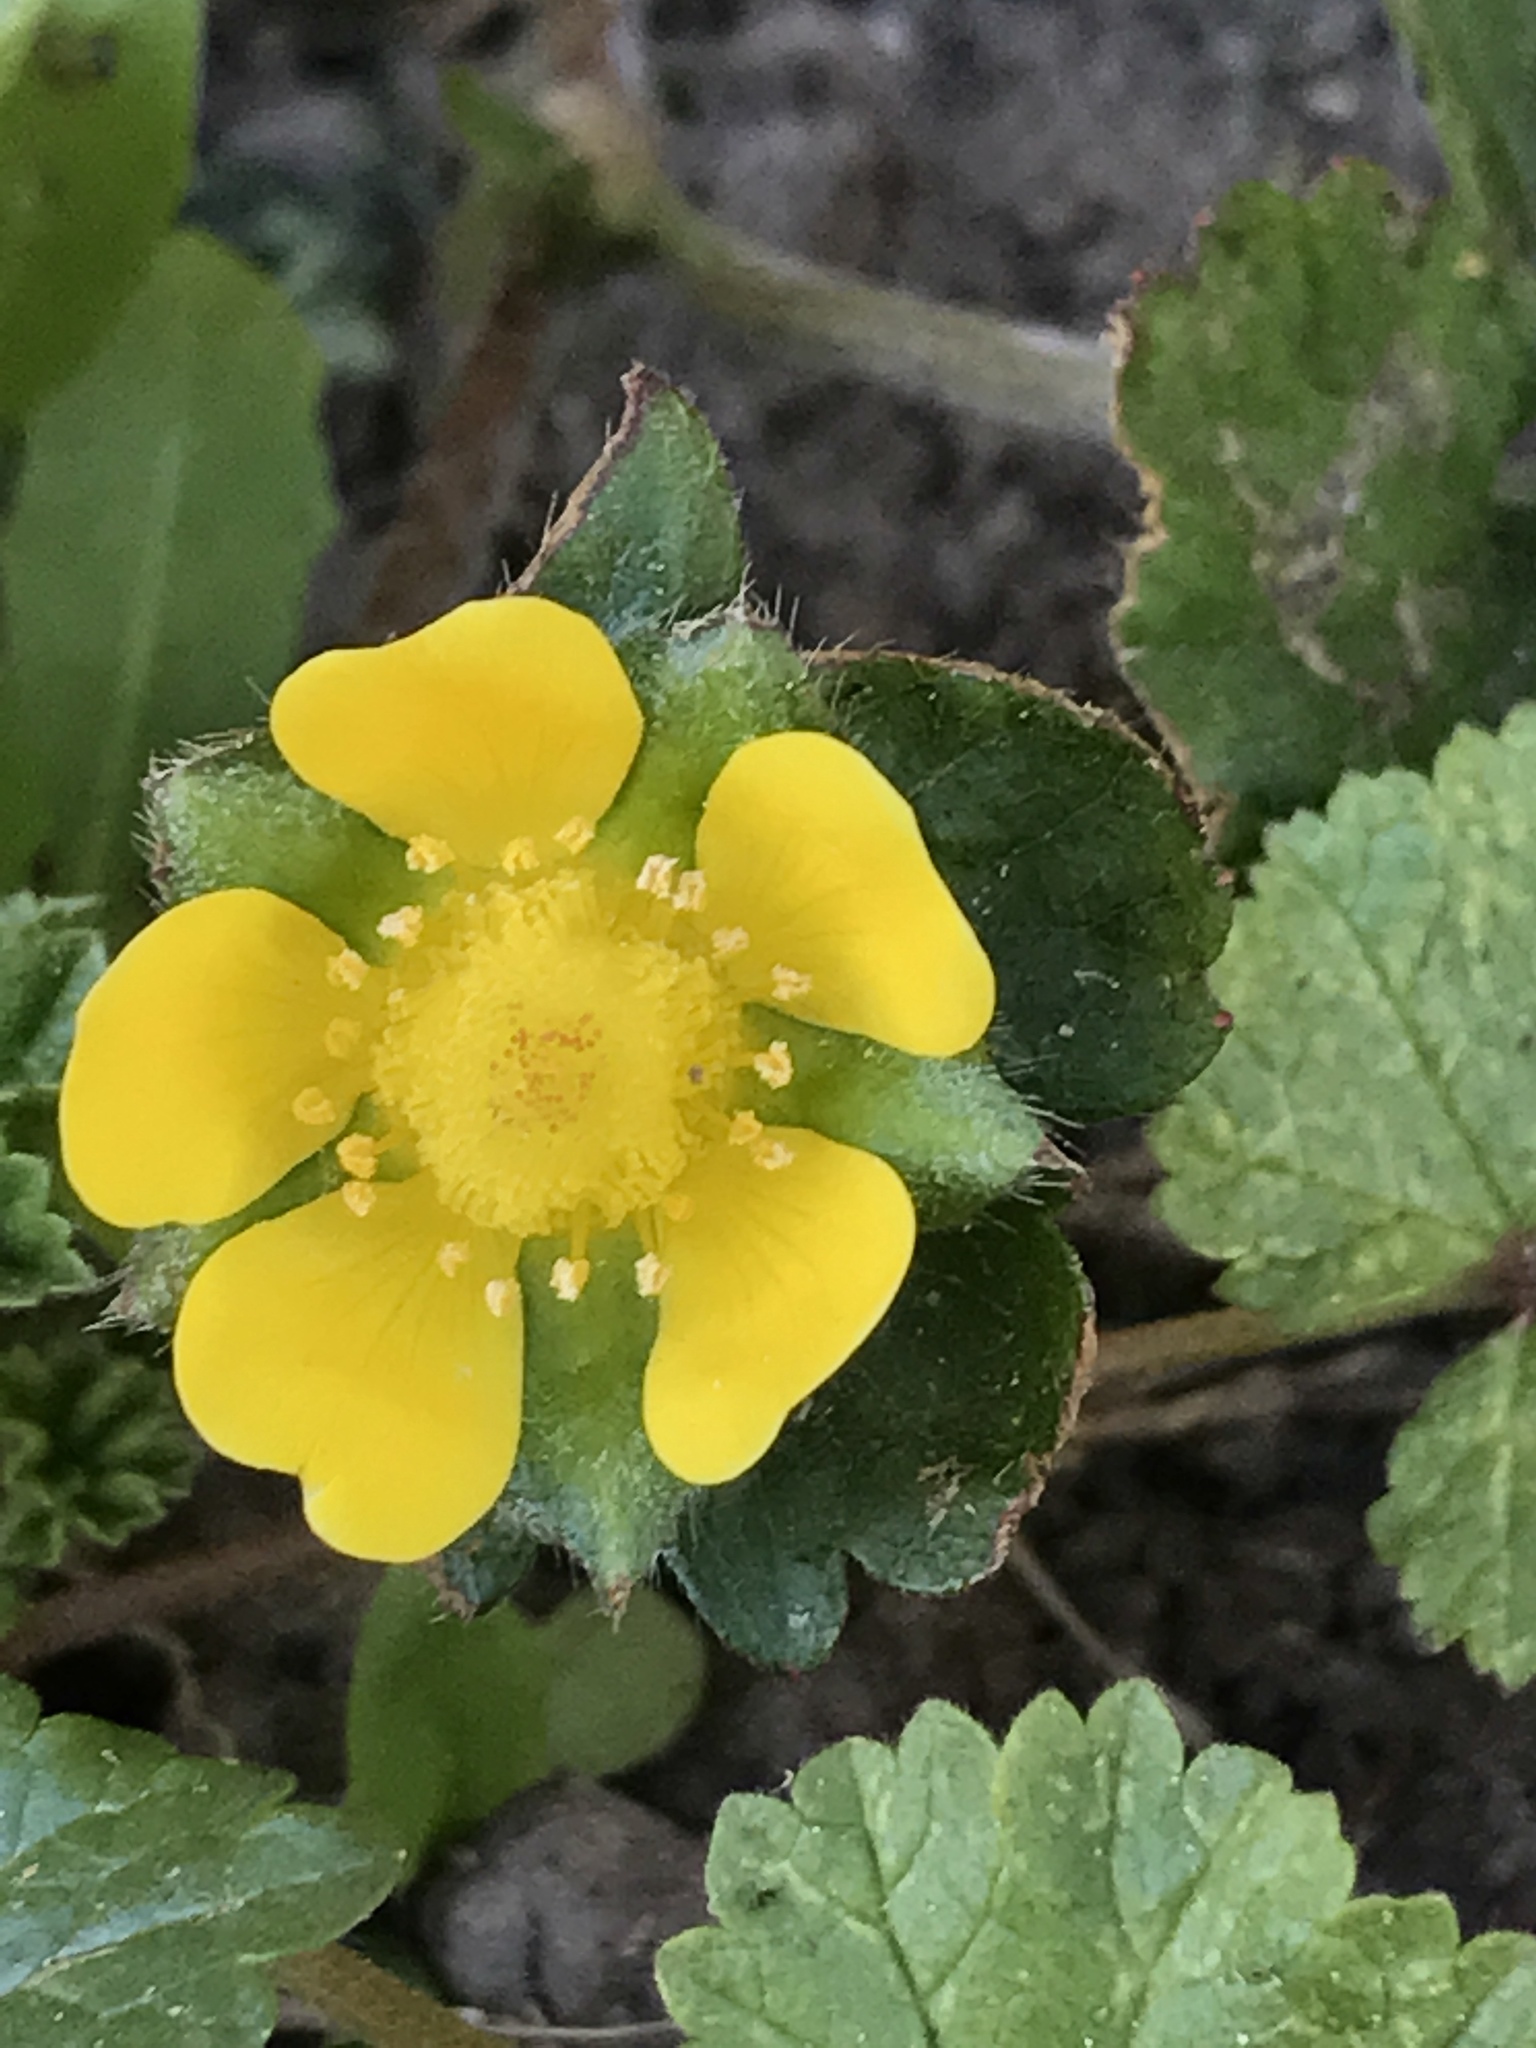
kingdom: Plantae
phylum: Tracheophyta
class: Magnoliopsida
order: Rosales
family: Rosaceae
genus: Potentilla
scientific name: Potentilla indica
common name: Yellow-flowered strawberry
